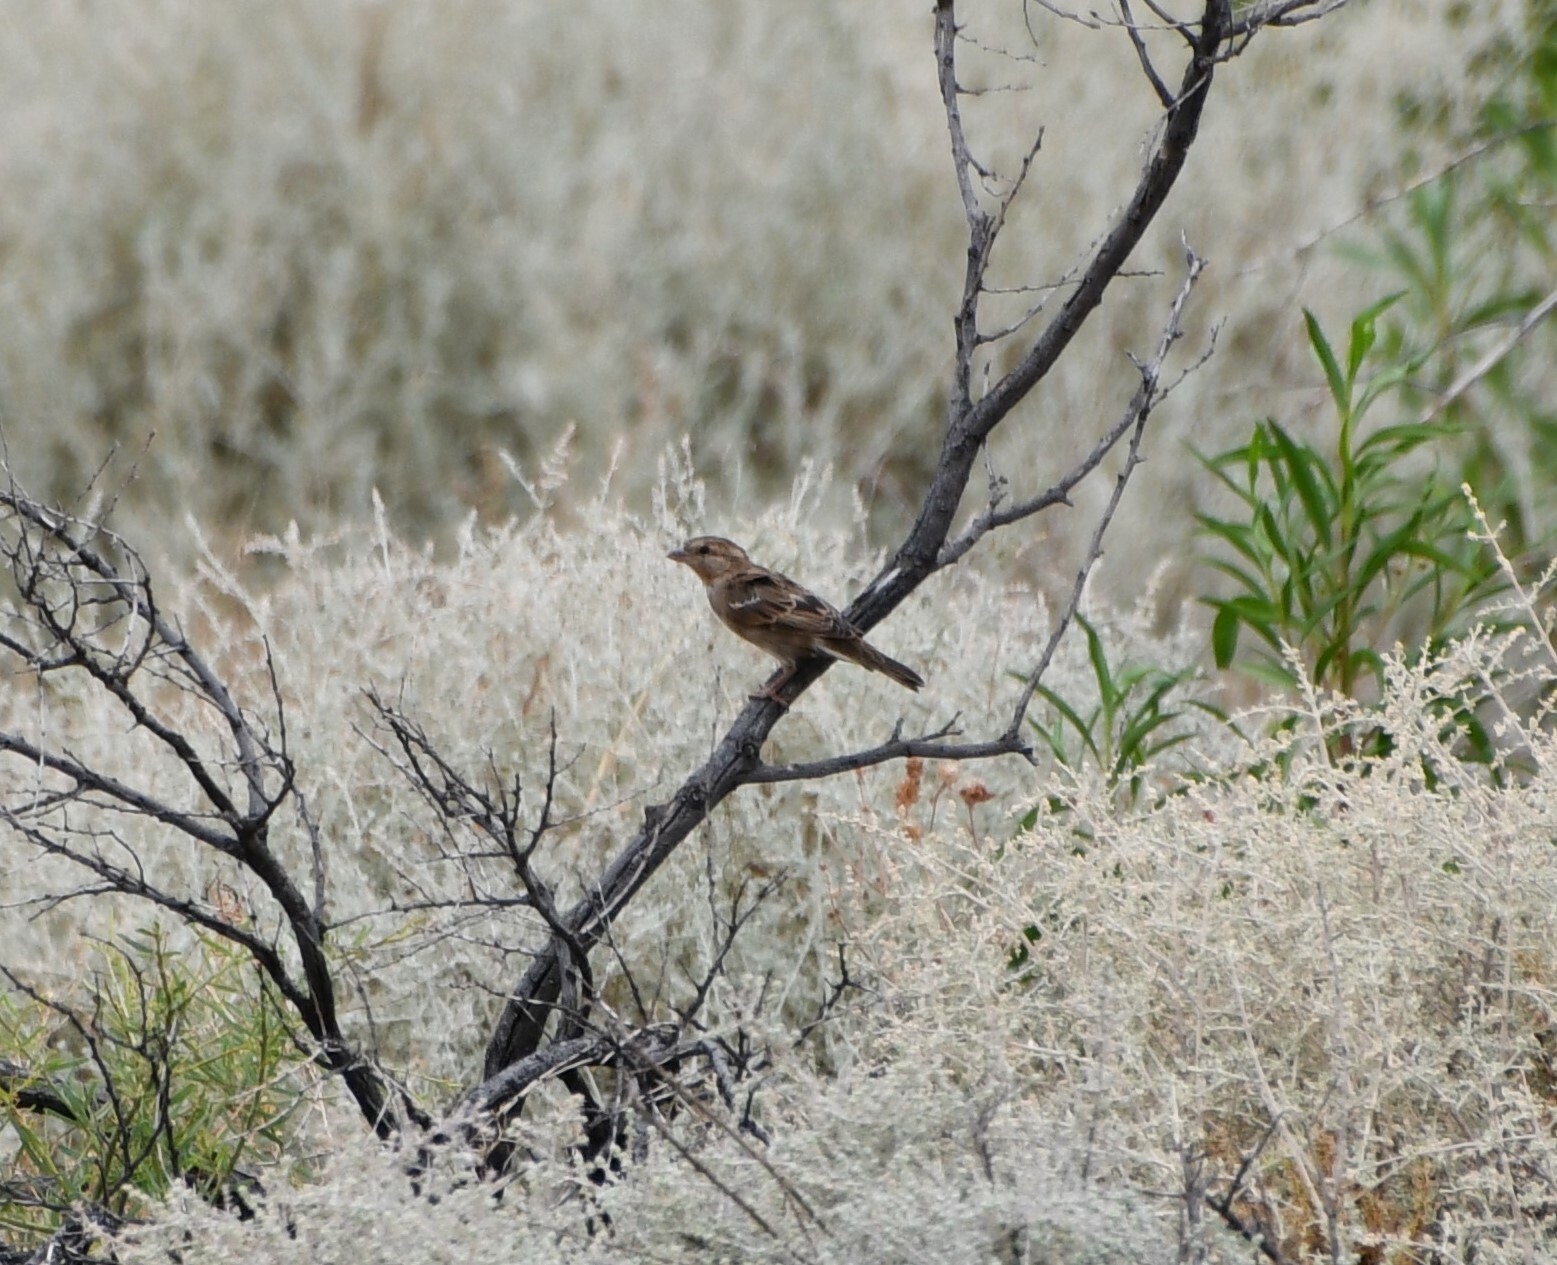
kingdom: Animalia
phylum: Chordata
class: Aves
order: Passeriformes
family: Passeridae
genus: Passer
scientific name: Passer domesticus
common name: House sparrow
